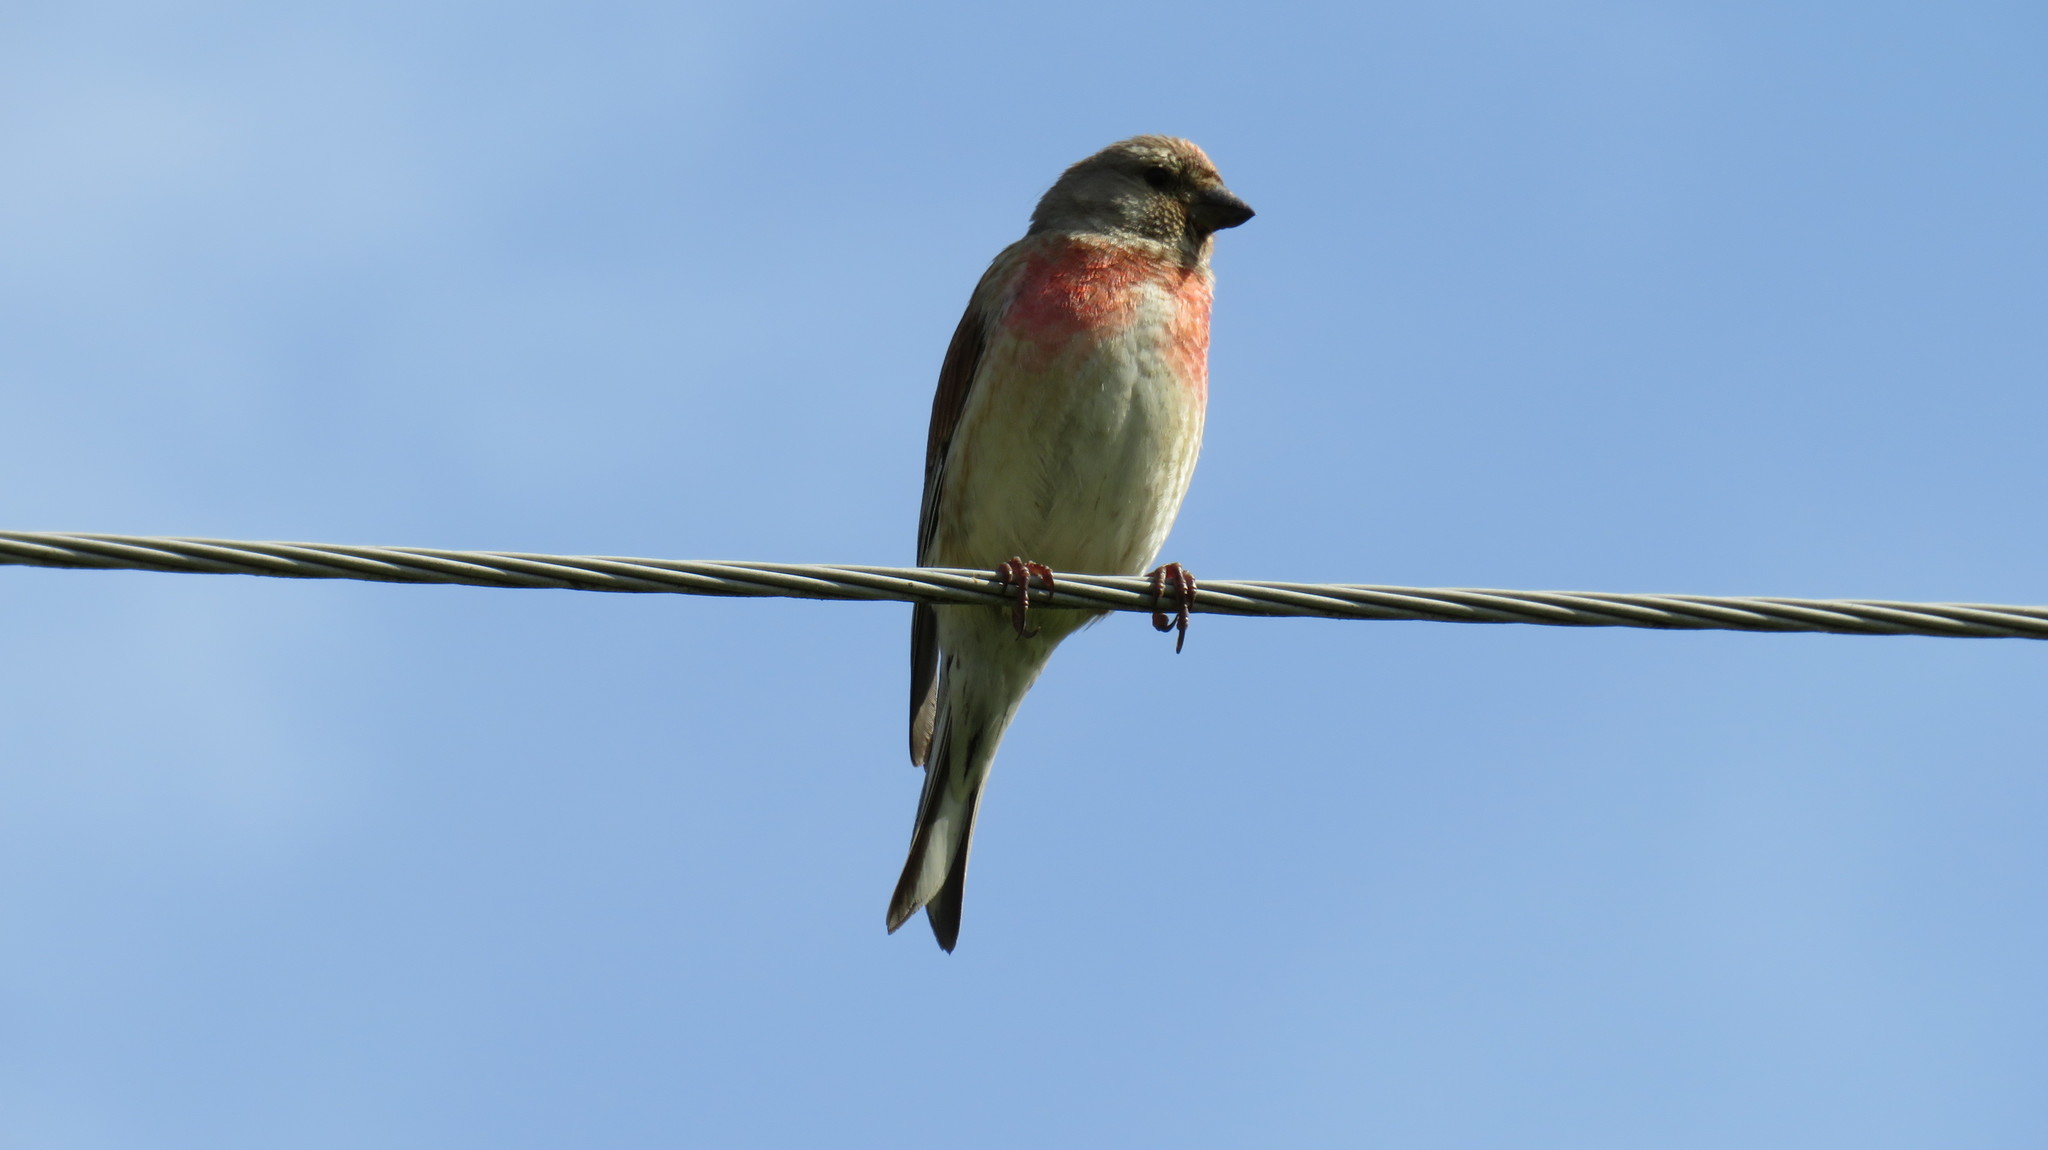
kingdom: Animalia
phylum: Chordata
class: Aves
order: Passeriformes
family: Fringillidae
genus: Linaria
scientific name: Linaria cannabina
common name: Common linnet
